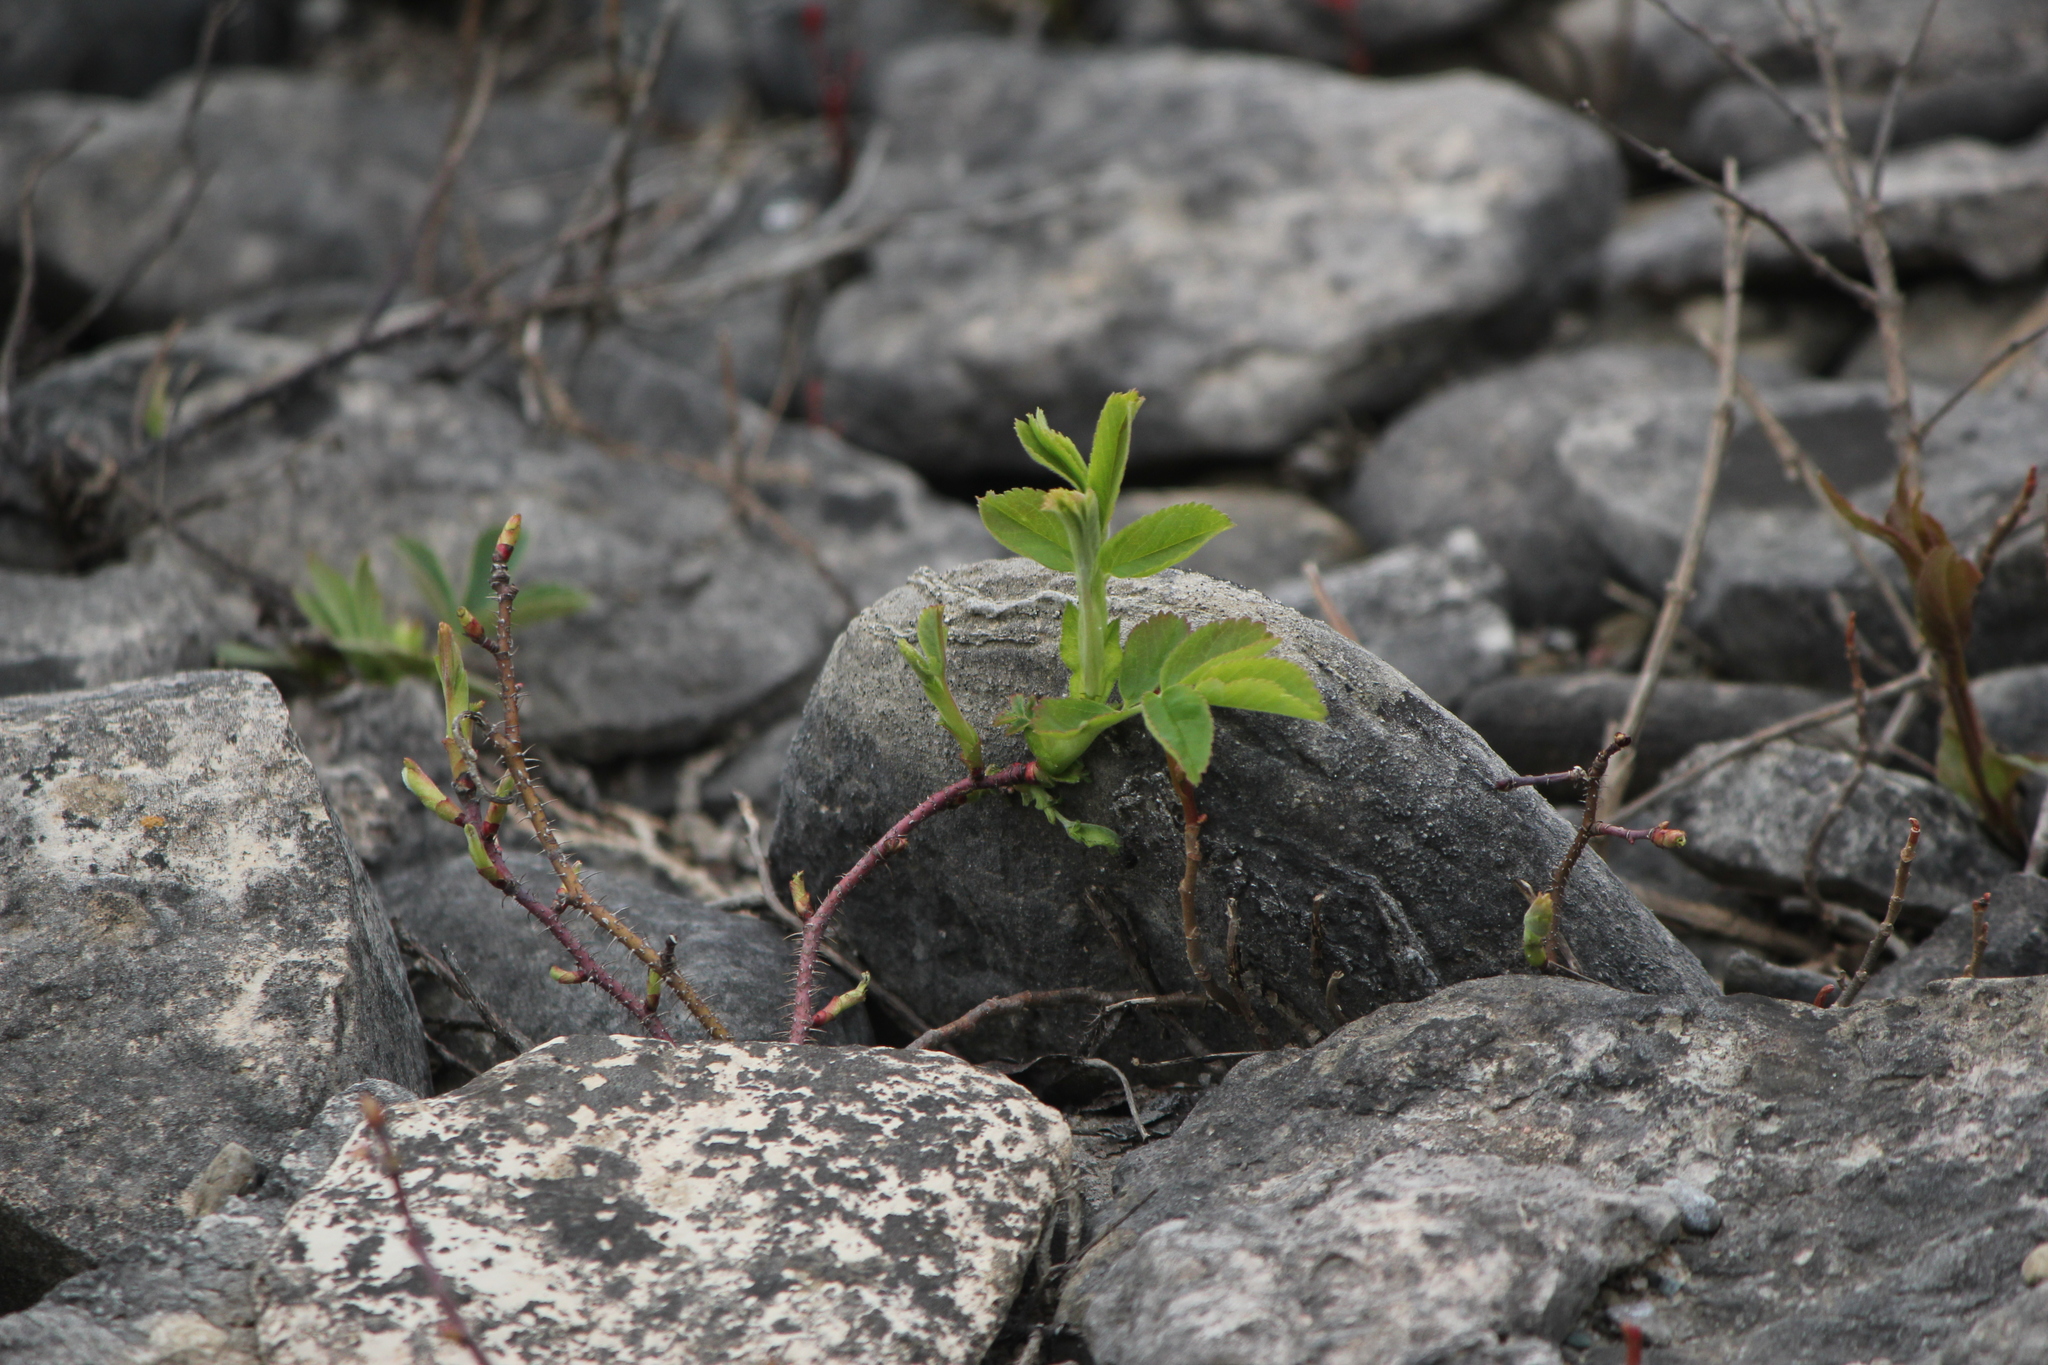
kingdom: Plantae
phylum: Tracheophyta
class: Magnoliopsida
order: Rosales
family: Rosaceae
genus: Rosa
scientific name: Rosa acicularis
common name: Prickly rose
